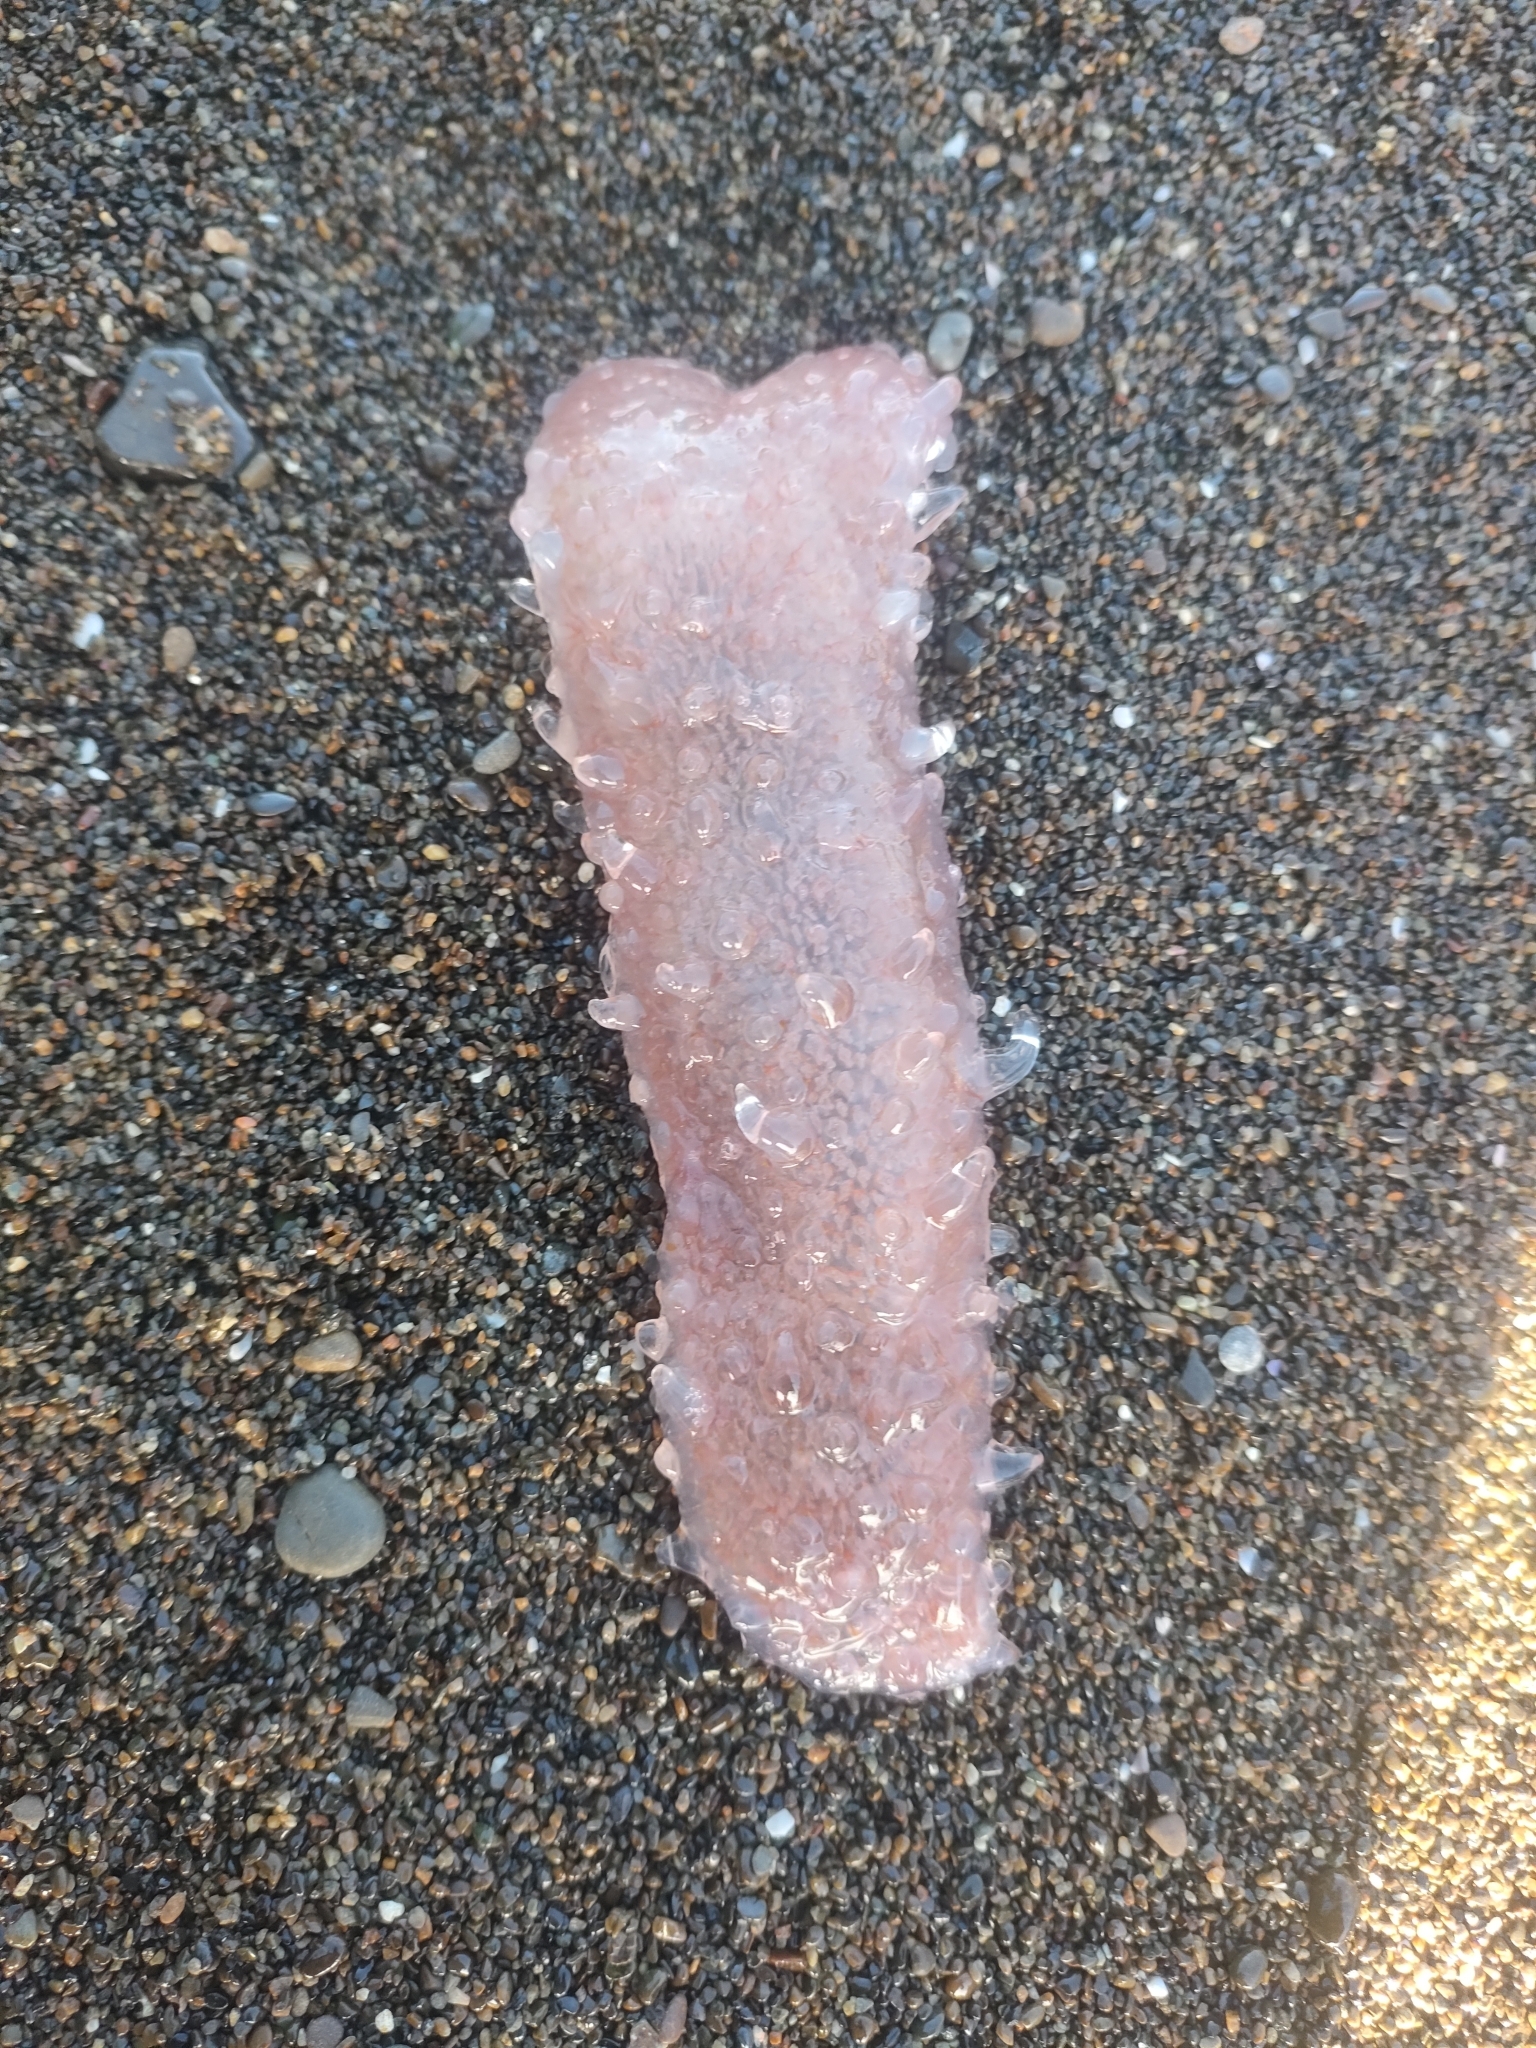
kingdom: Animalia
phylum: Chordata
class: Thaliacea
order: Pyrosomatida
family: Pyrosomatidae
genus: Pyrosoma
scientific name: Pyrosoma atlanticum
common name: Atlantic pyrosomes
